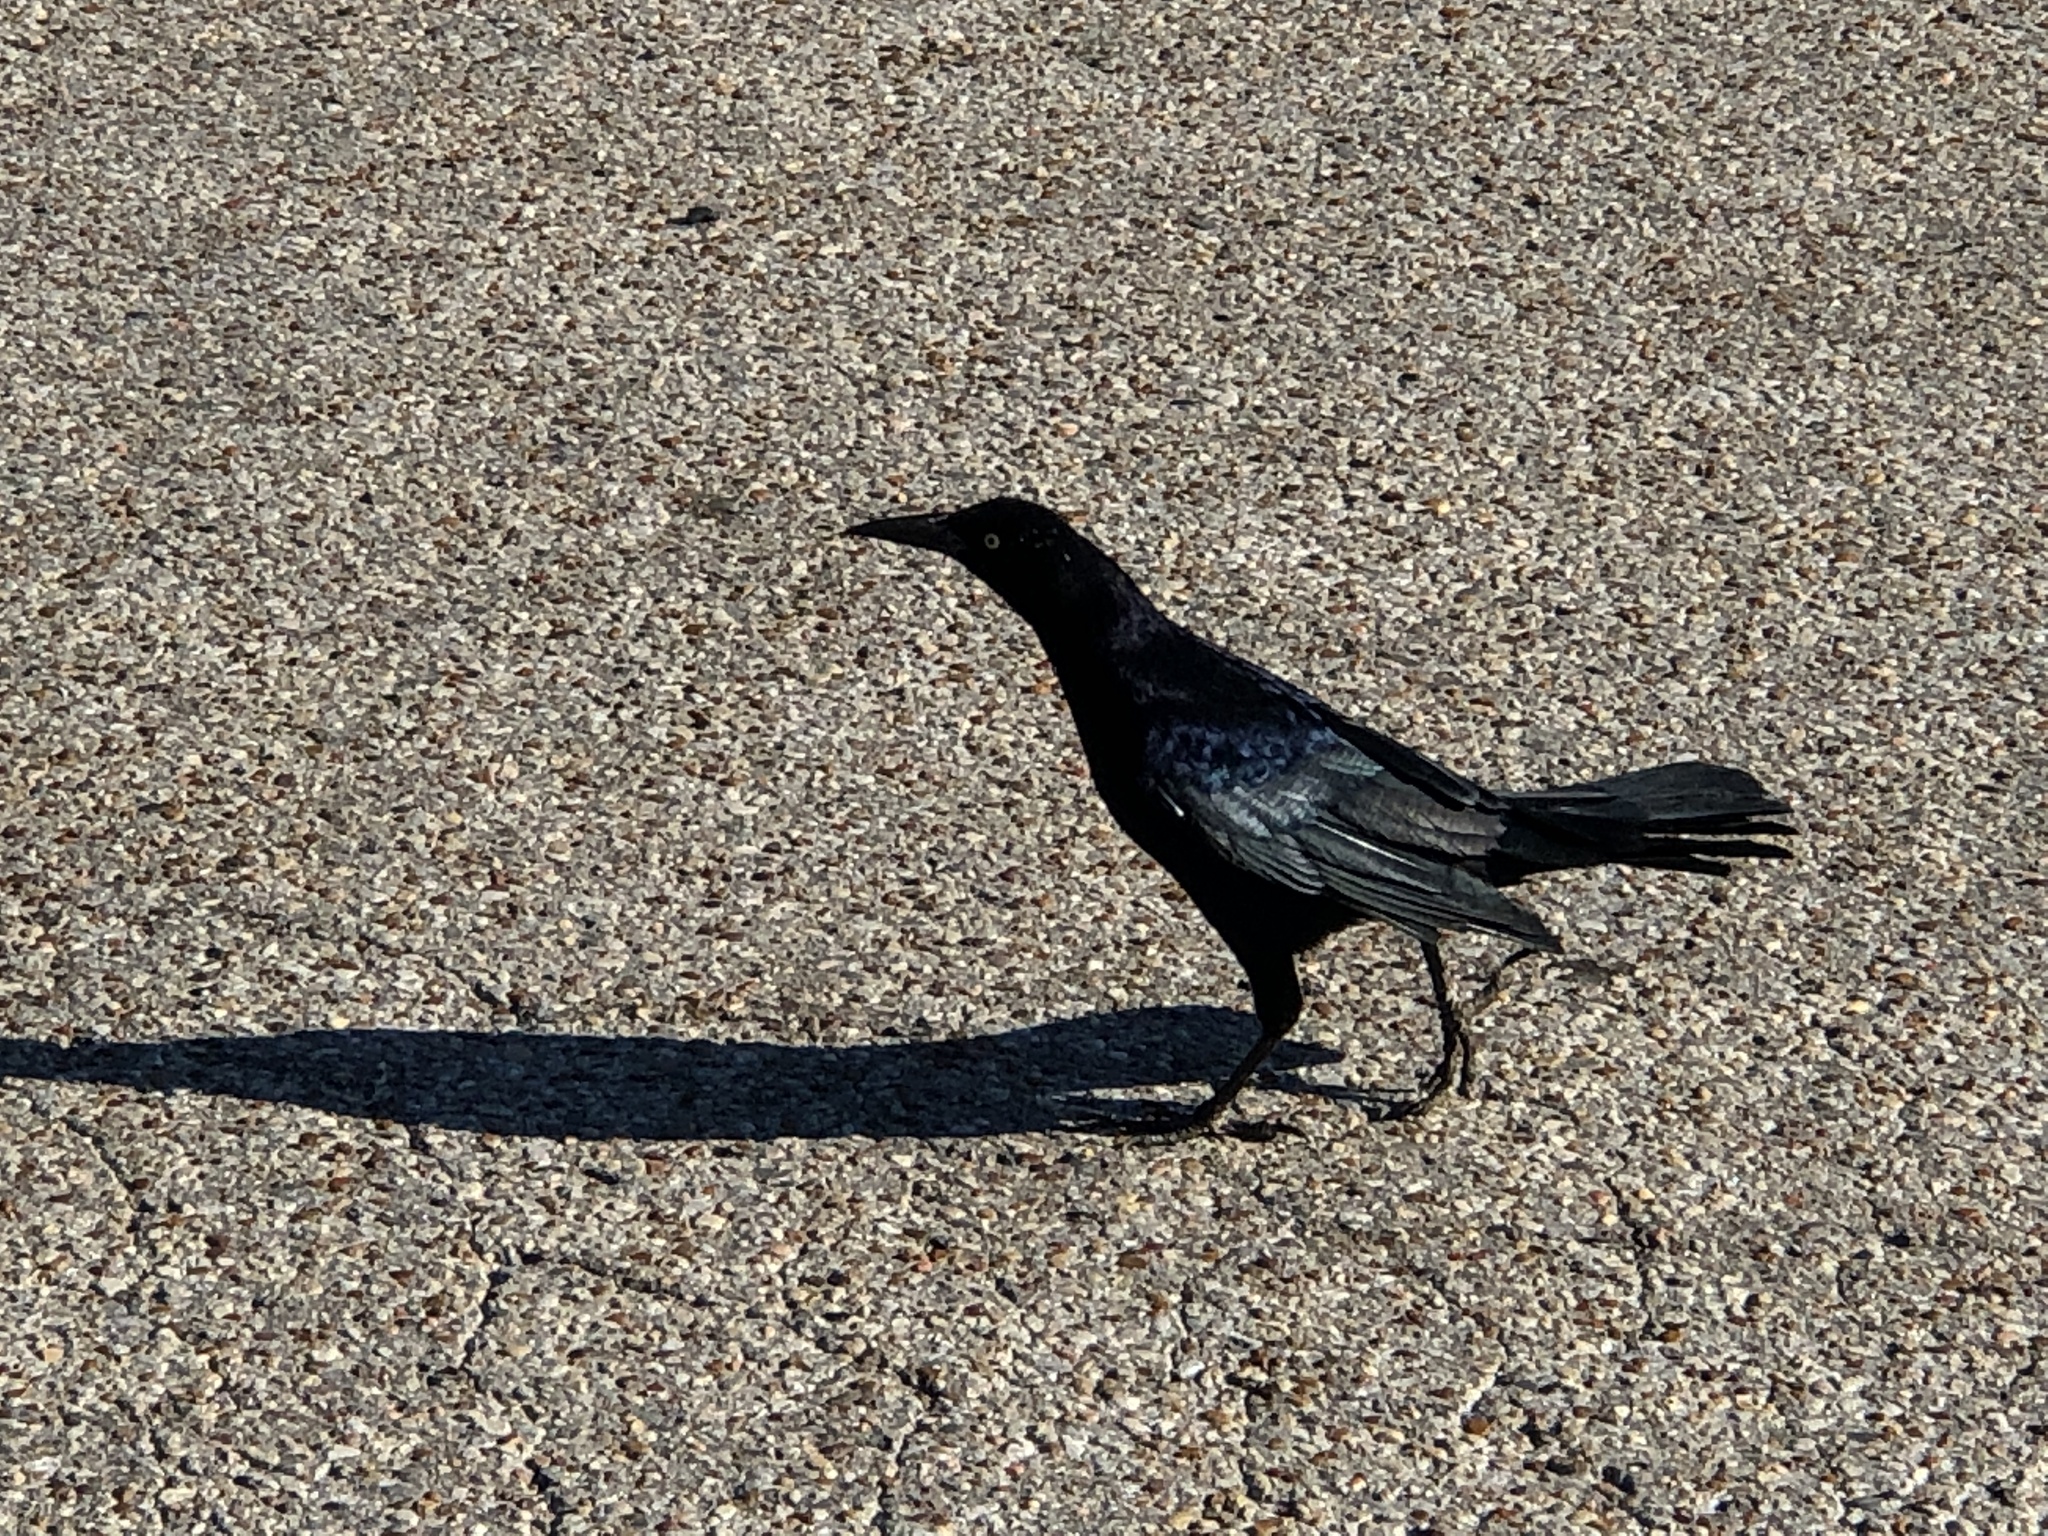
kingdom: Animalia
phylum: Chordata
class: Aves
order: Passeriformes
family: Icteridae
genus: Quiscalus
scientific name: Quiscalus mexicanus
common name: Great-tailed grackle
